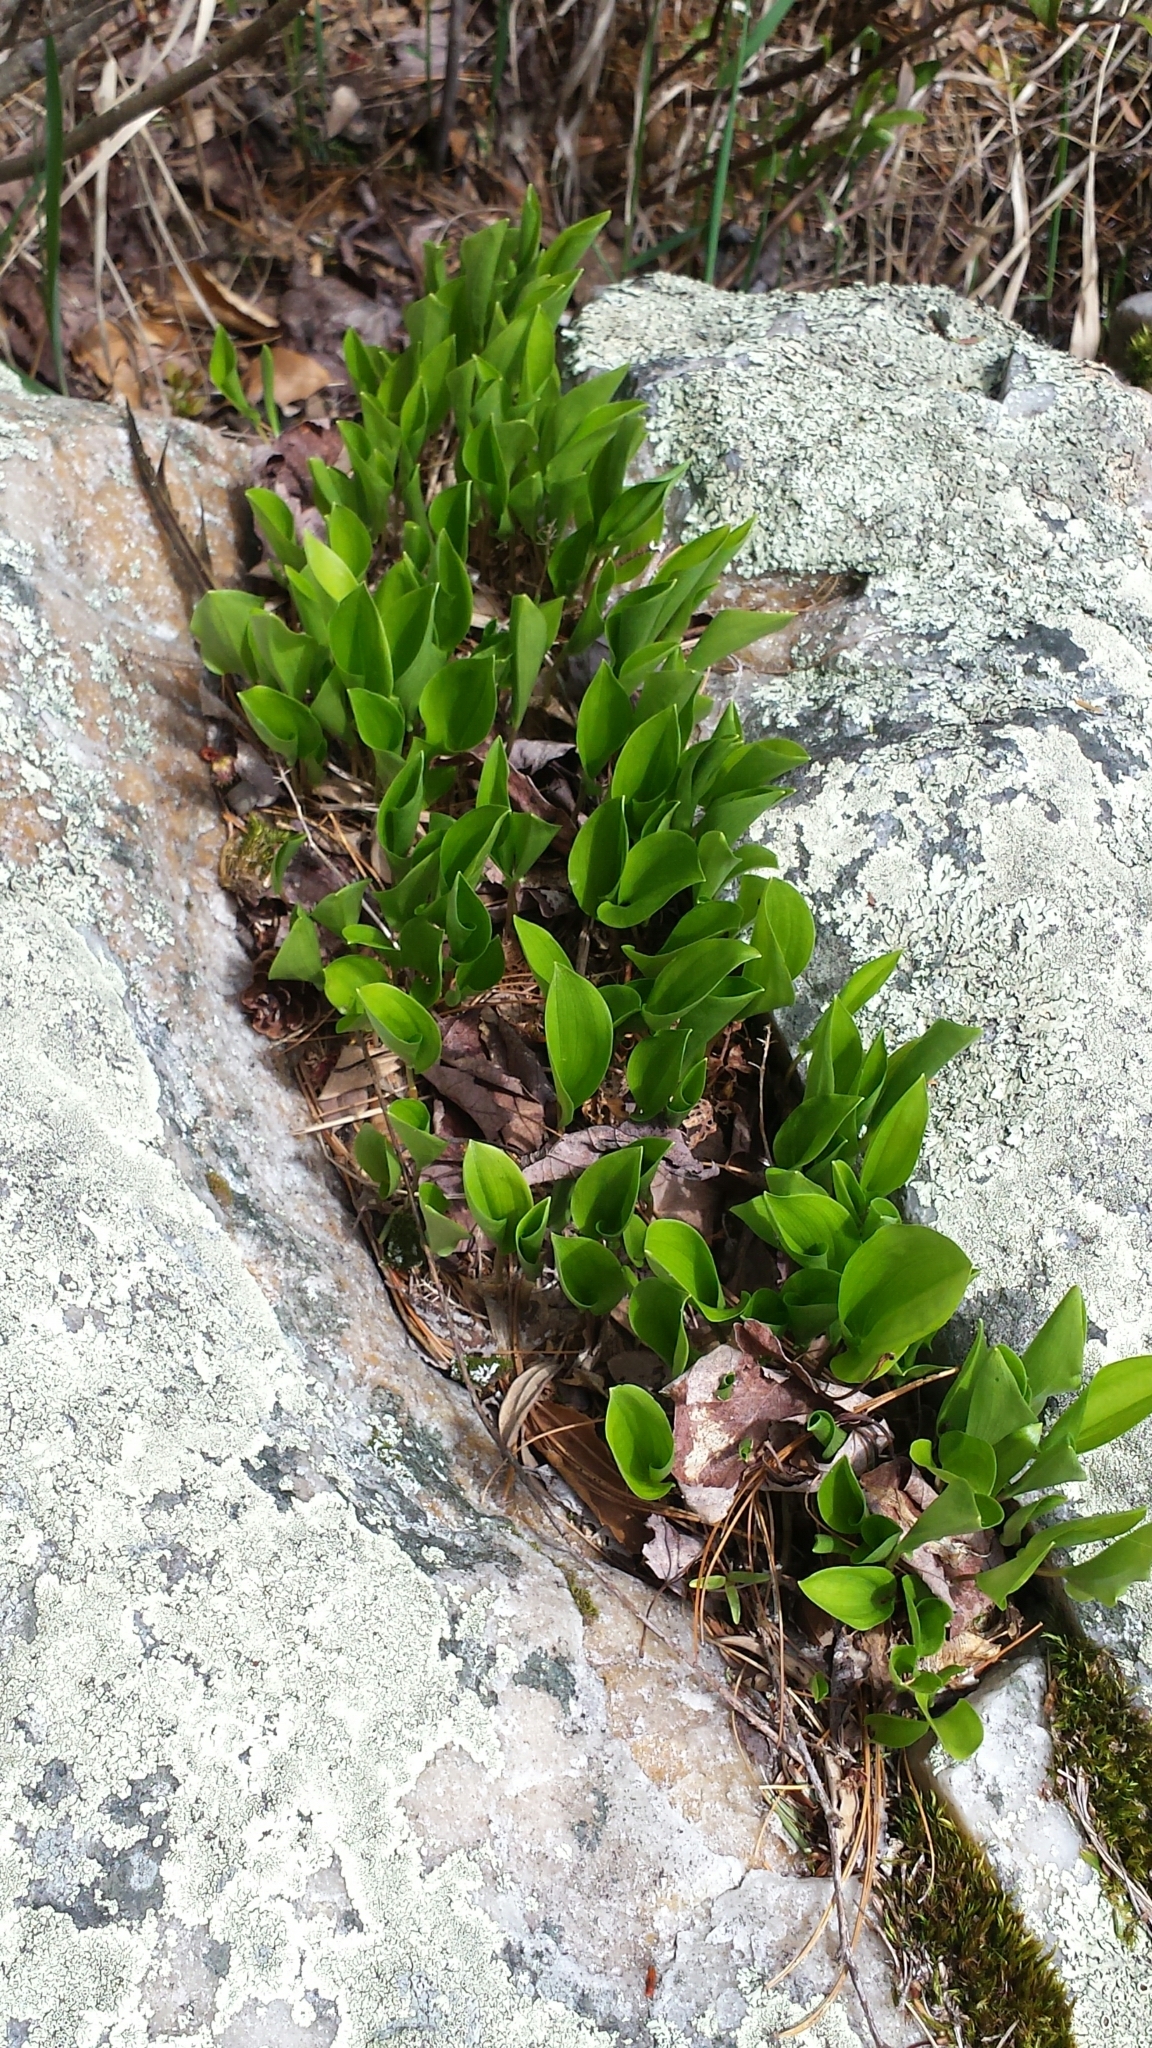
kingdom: Plantae
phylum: Tracheophyta
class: Liliopsida
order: Asparagales
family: Asparagaceae
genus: Maianthemum
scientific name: Maianthemum canadense
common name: False lily-of-the-valley
